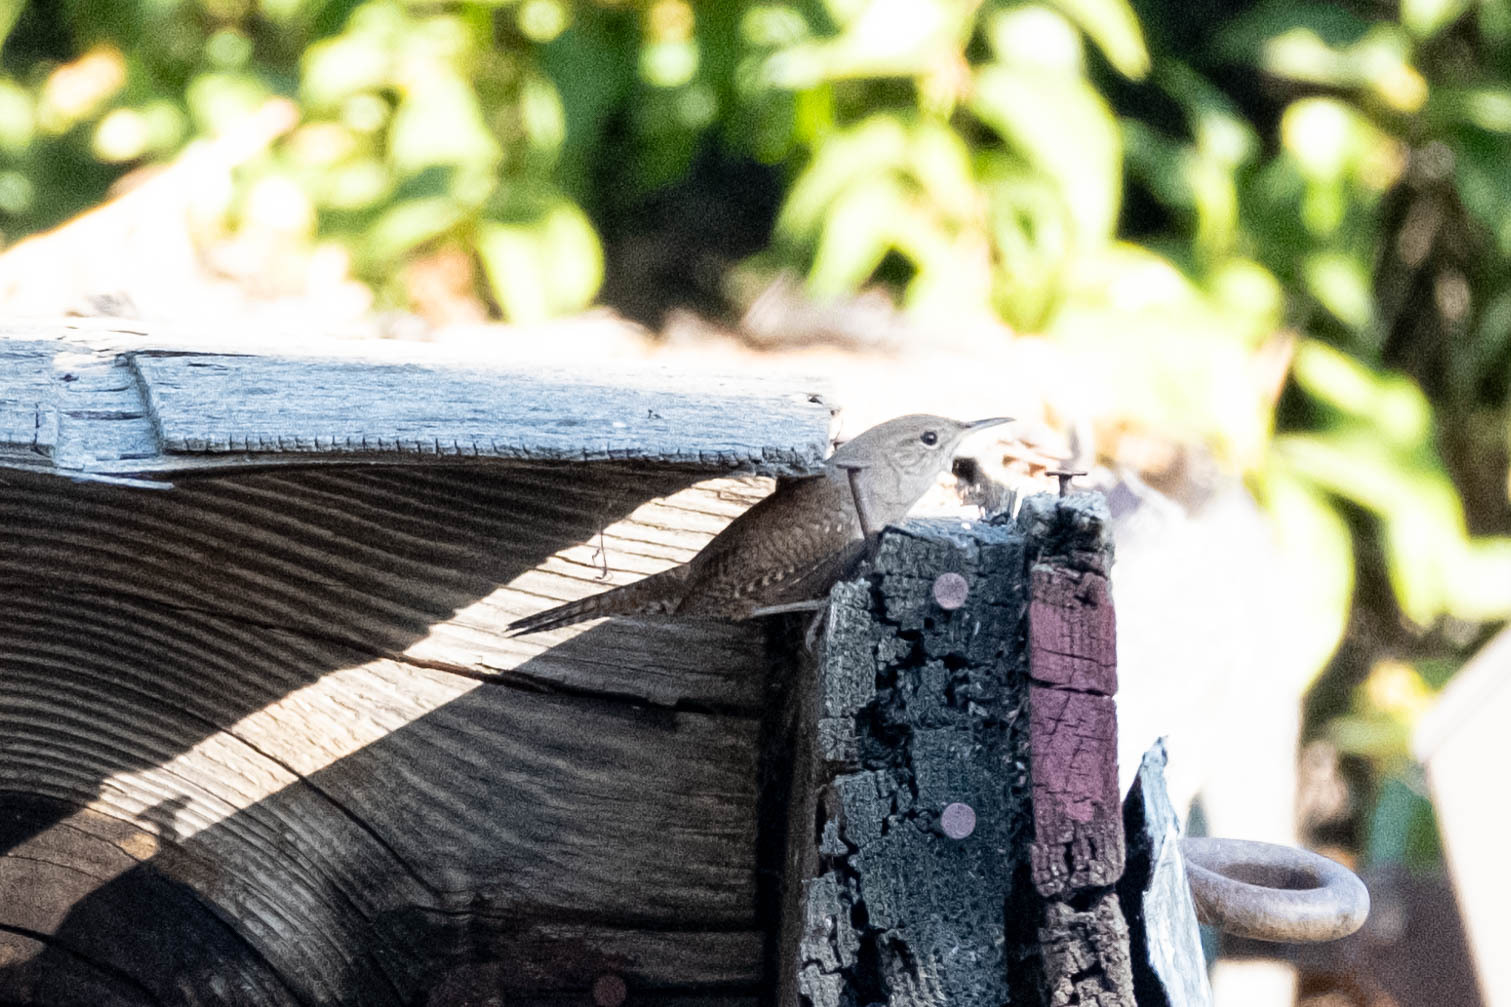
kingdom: Animalia
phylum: Chordata
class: Aves
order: Passeriformes
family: Troglodytidae
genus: Troglodytes
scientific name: Troglodytes aedon
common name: House wren
